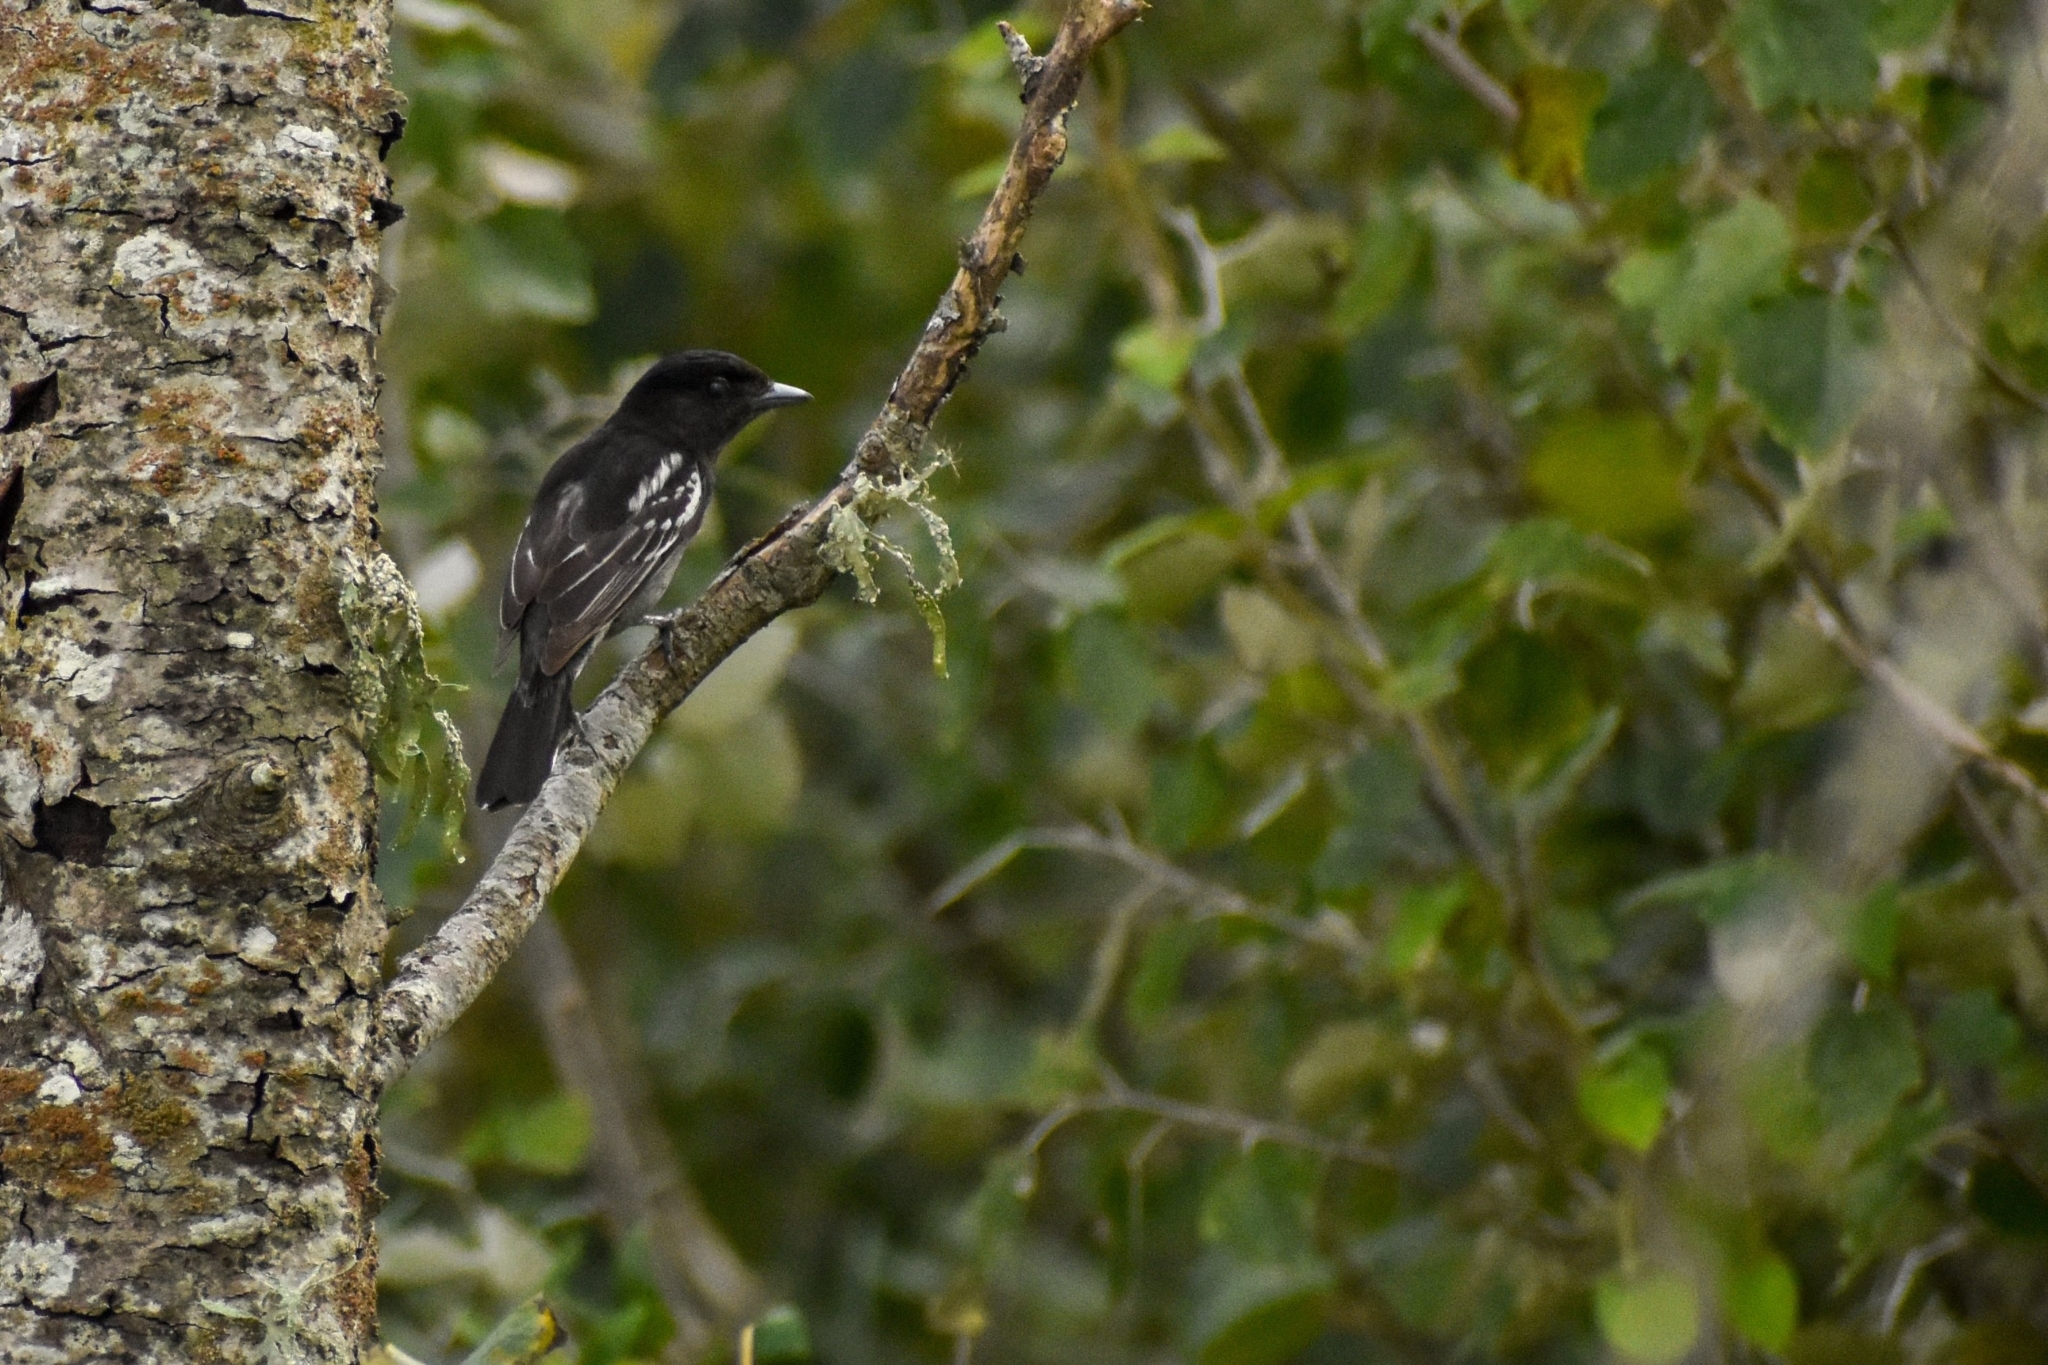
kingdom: Animalia
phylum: Chordata
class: Aves
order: Passeriformes
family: Cotingidae
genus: Pachyramphus
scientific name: Pachyramphus polychopterus
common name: White-winged becard
